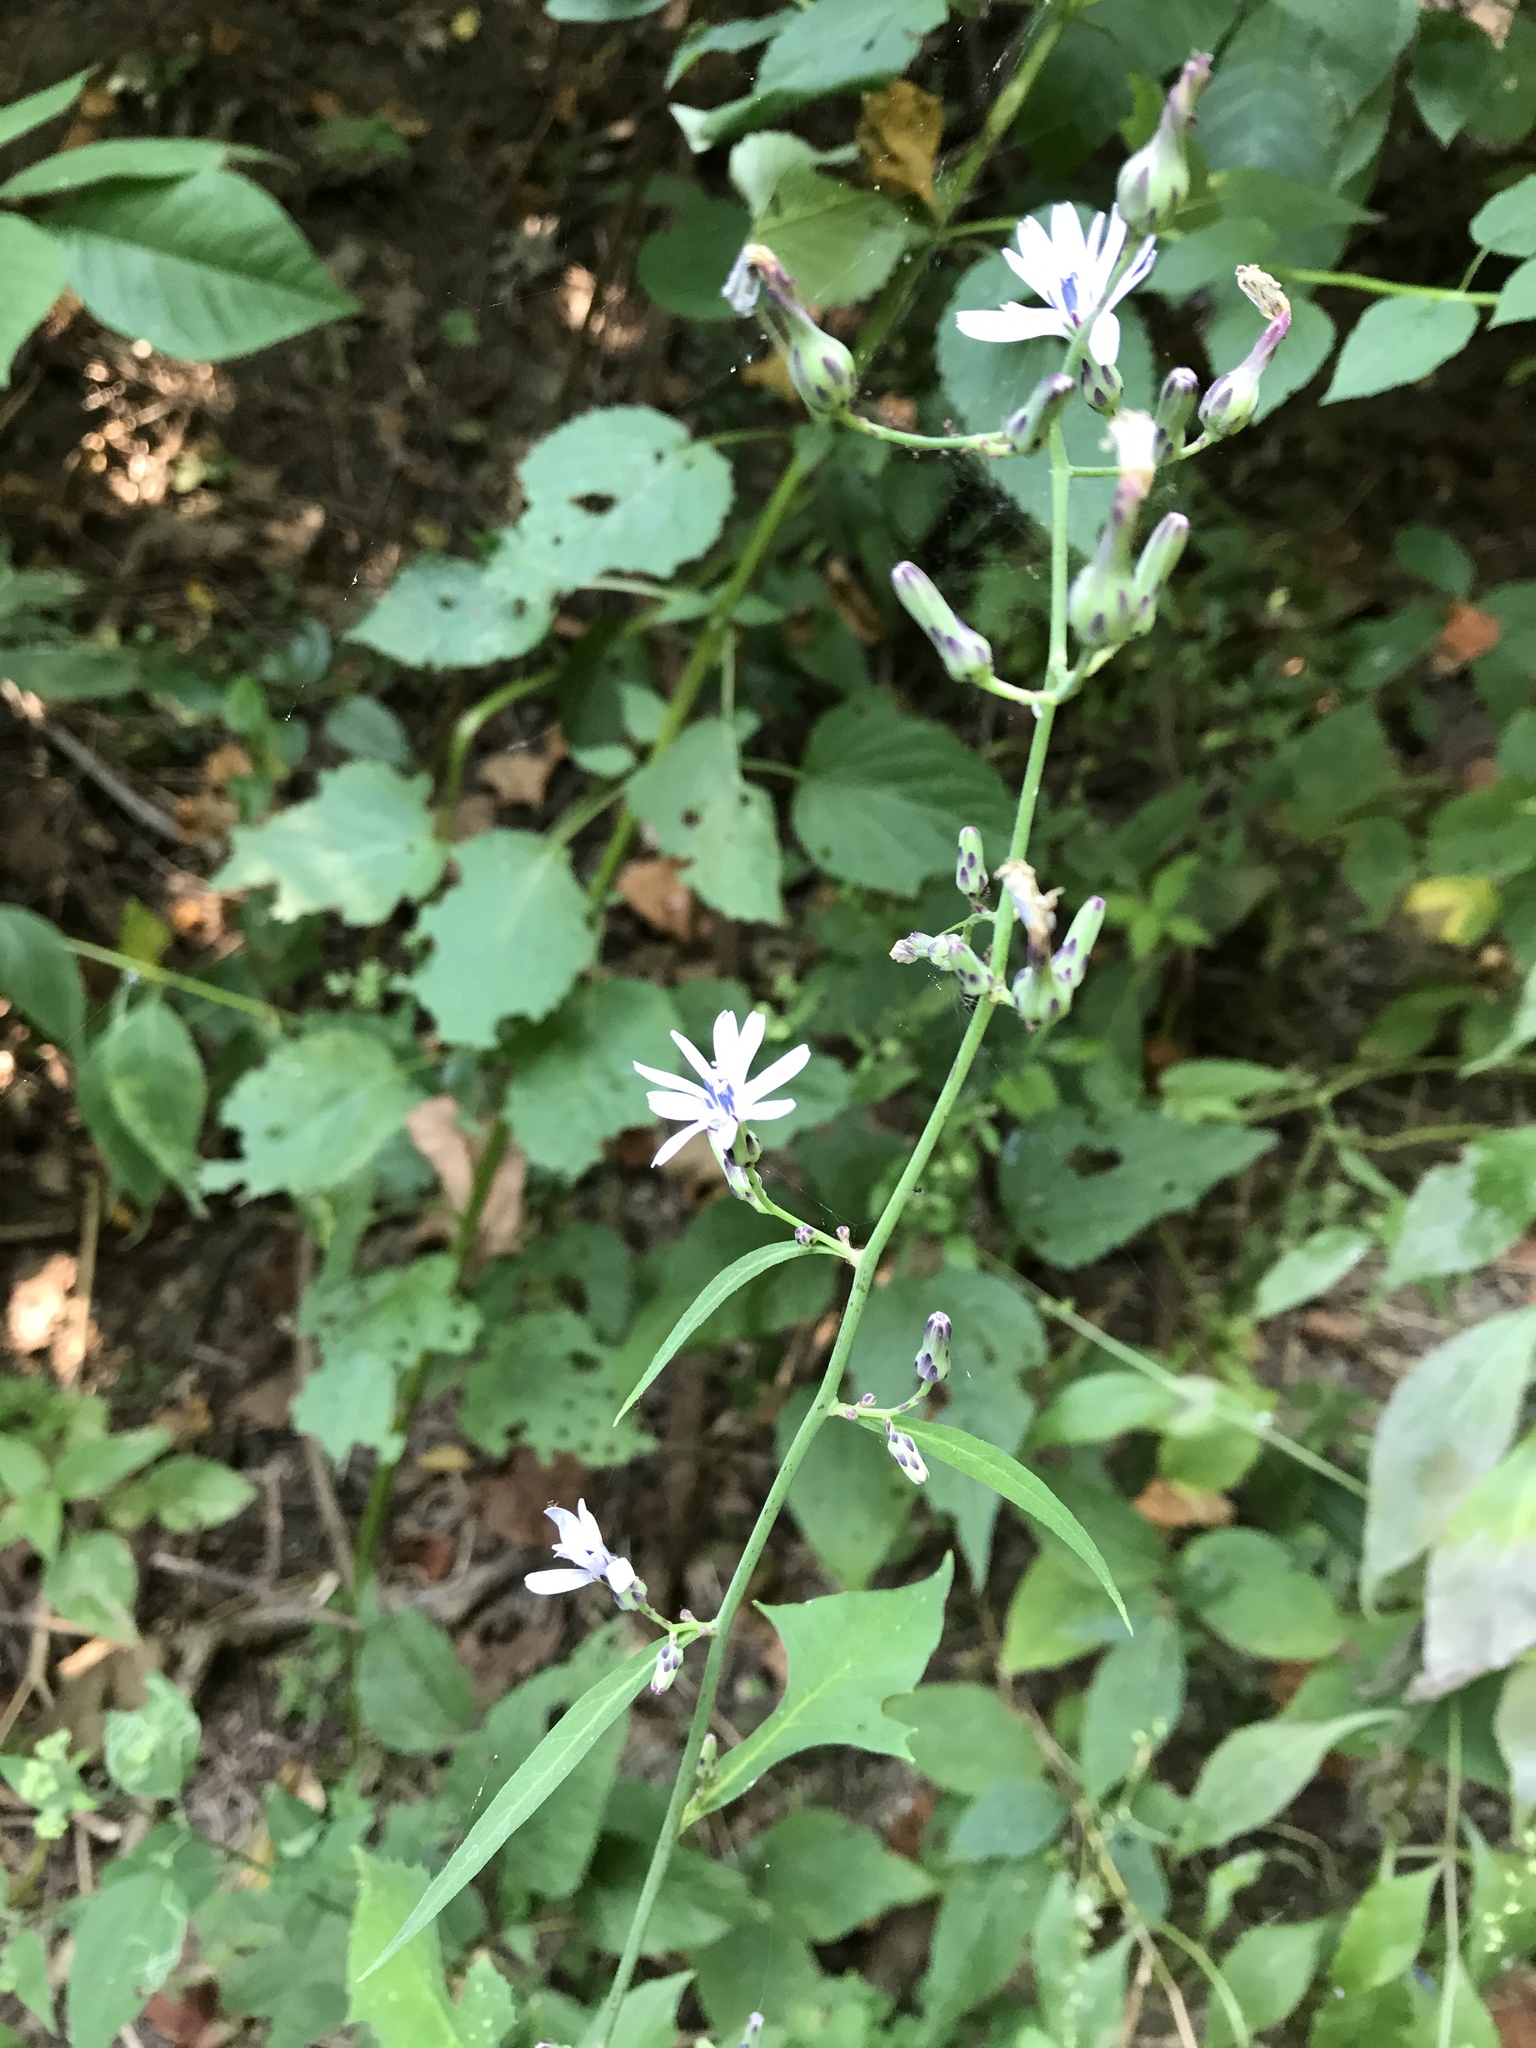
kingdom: Plantae
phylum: Tracheophyta
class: Magnoliopsida
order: Asterales
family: Asteraceae
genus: Lactuca
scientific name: Lactuca floridana
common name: Woodland lettuce
